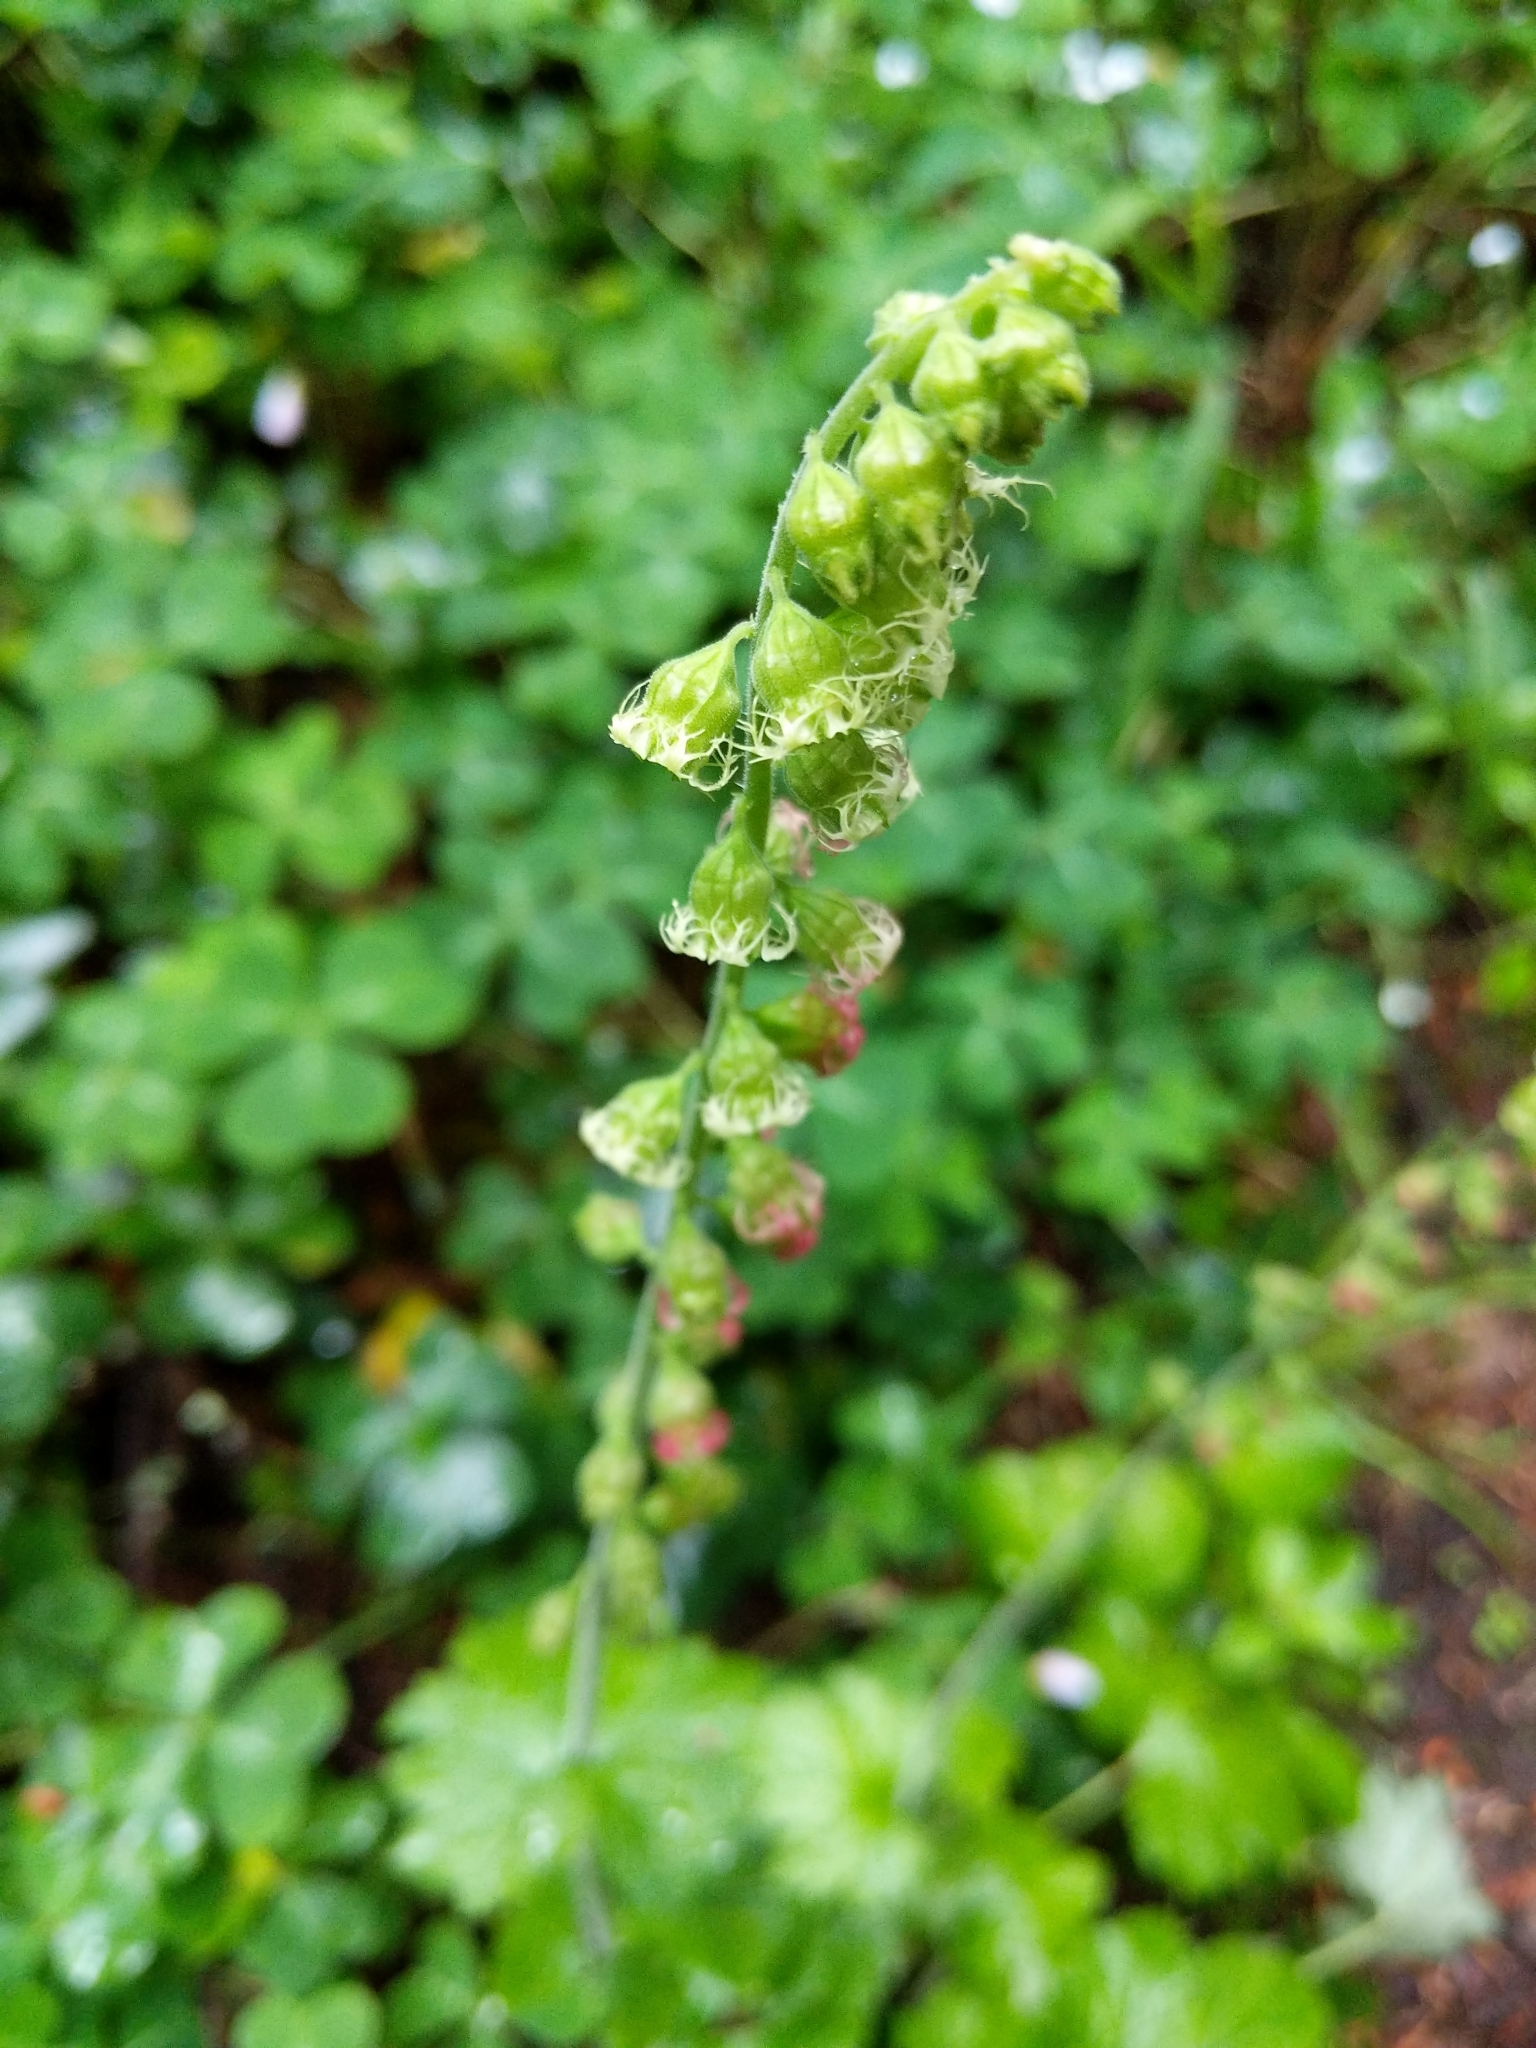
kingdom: Plantae
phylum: Tracheophyta
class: Magnoliopsida
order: Saxifragales
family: Saxifragaceae
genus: Tellima
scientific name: Tellima grandiflora
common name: Fringecups
